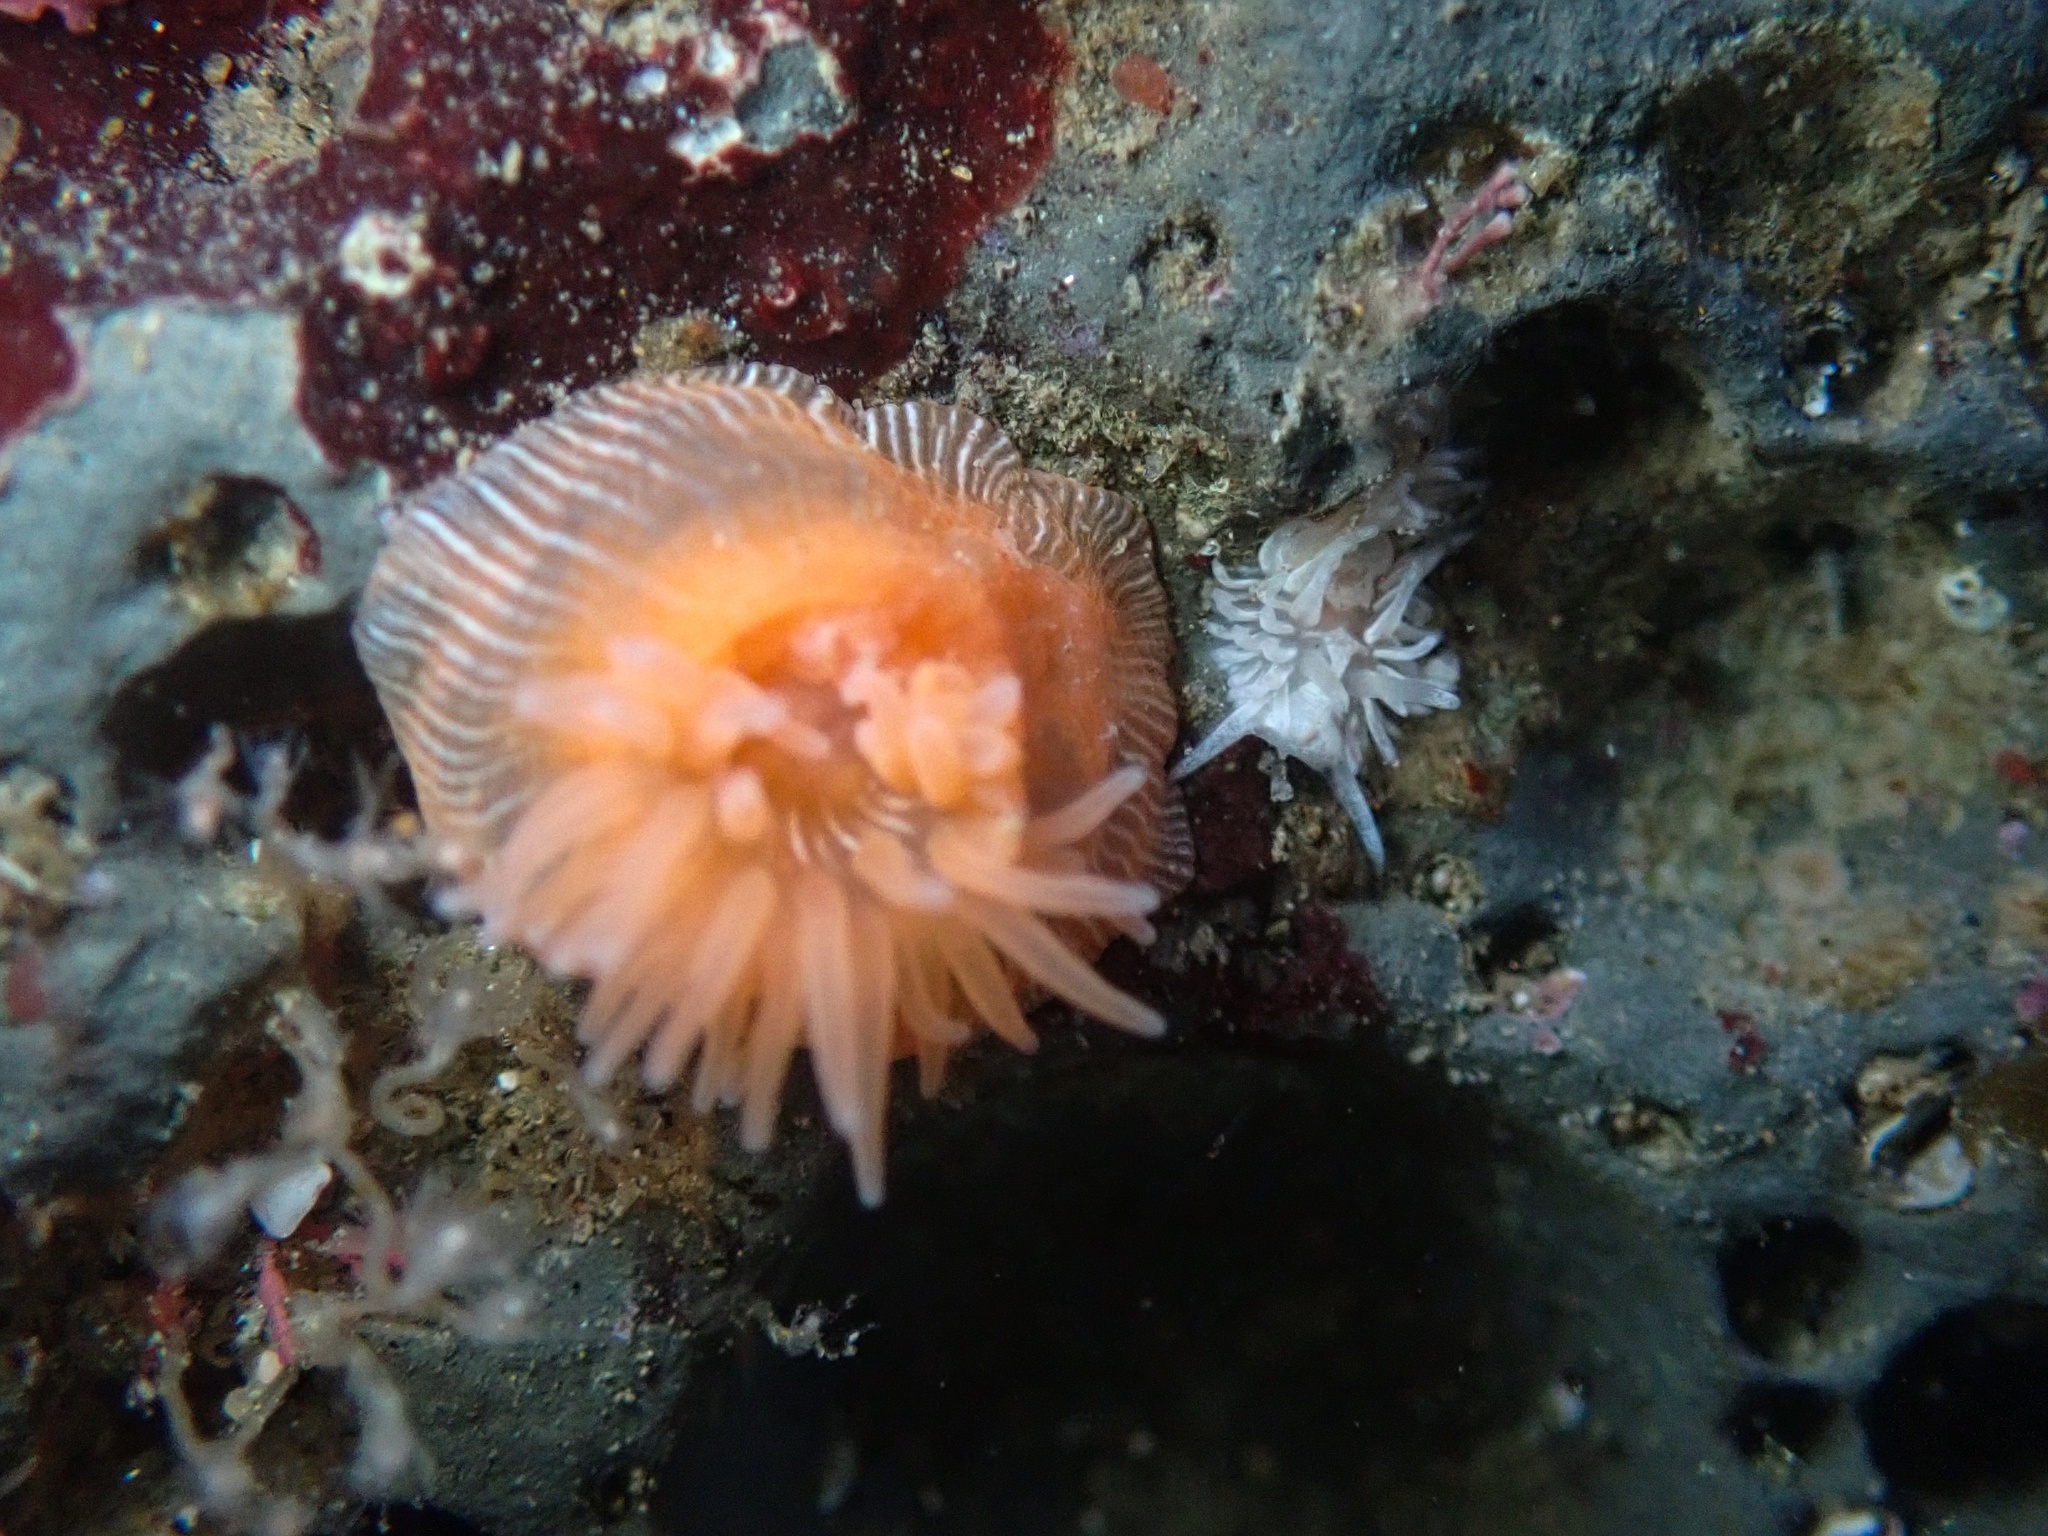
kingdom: Animalia
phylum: Cnidaria
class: Anthozoa
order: Actiniaria
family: Actiniidae
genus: Epiactis
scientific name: Epiactis prolifera
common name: Brooding anemone
